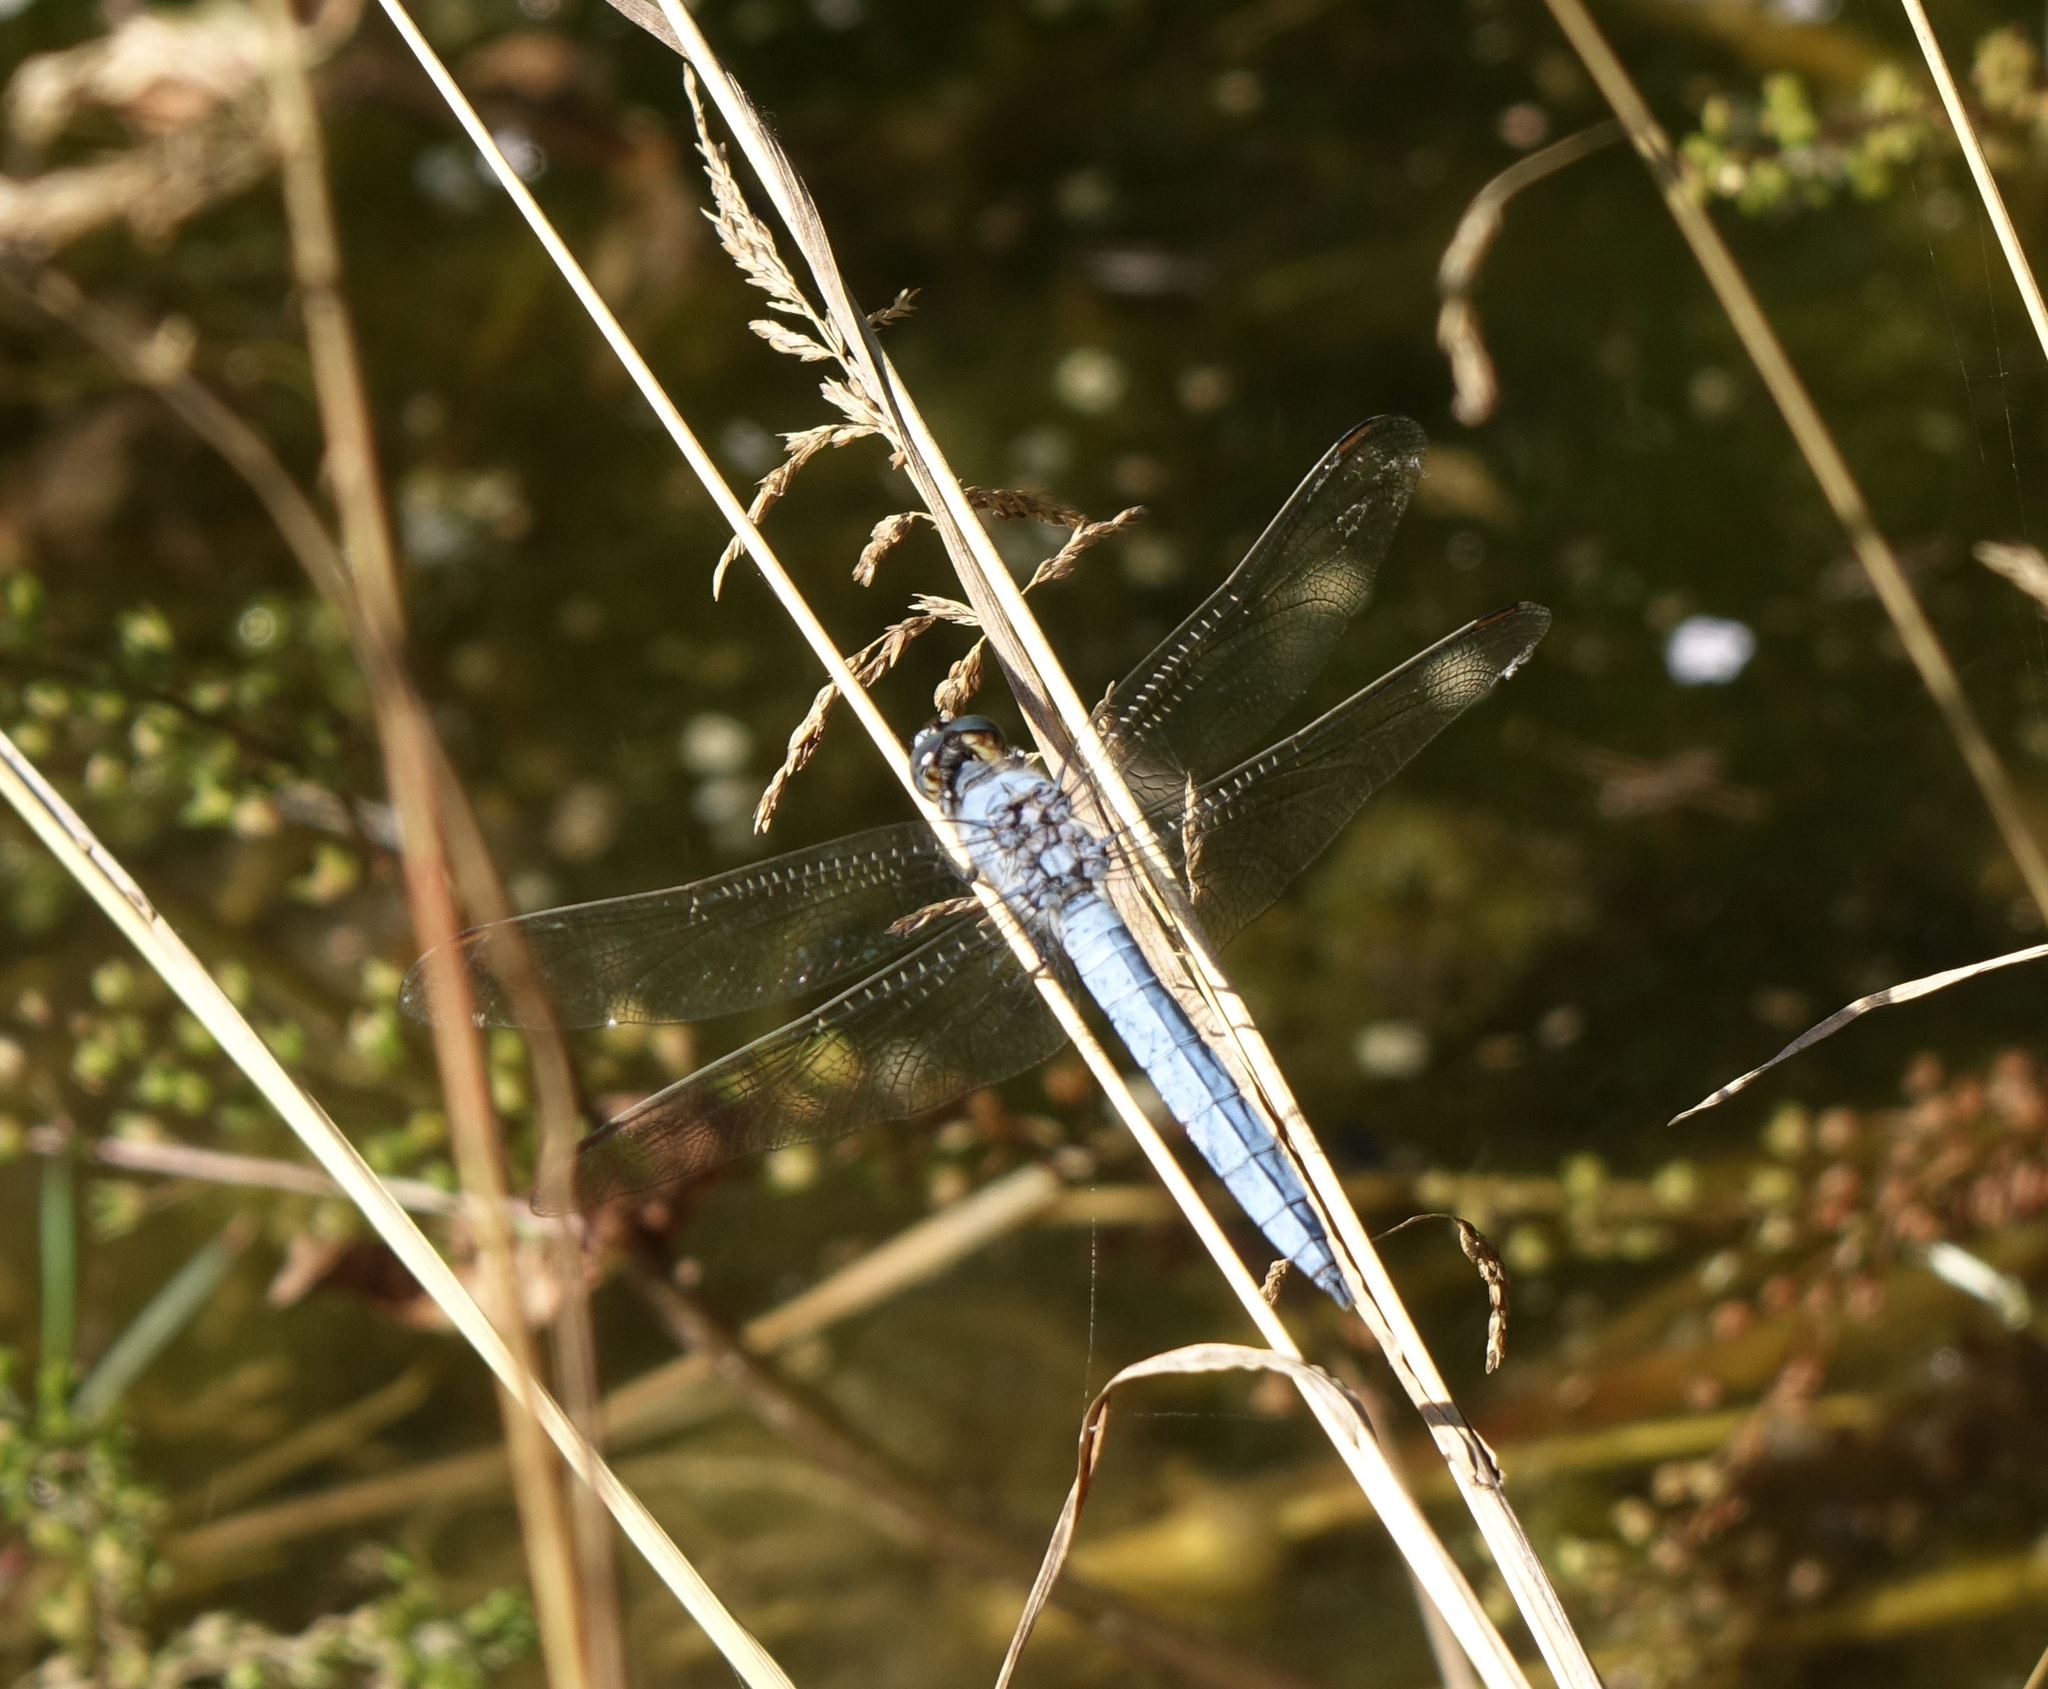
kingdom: Animalia
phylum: Arthropoda
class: Insecta
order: Odonata
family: Libellulidae
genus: Orthetrum
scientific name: Orthetrum brunneum
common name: Southern skimmer
